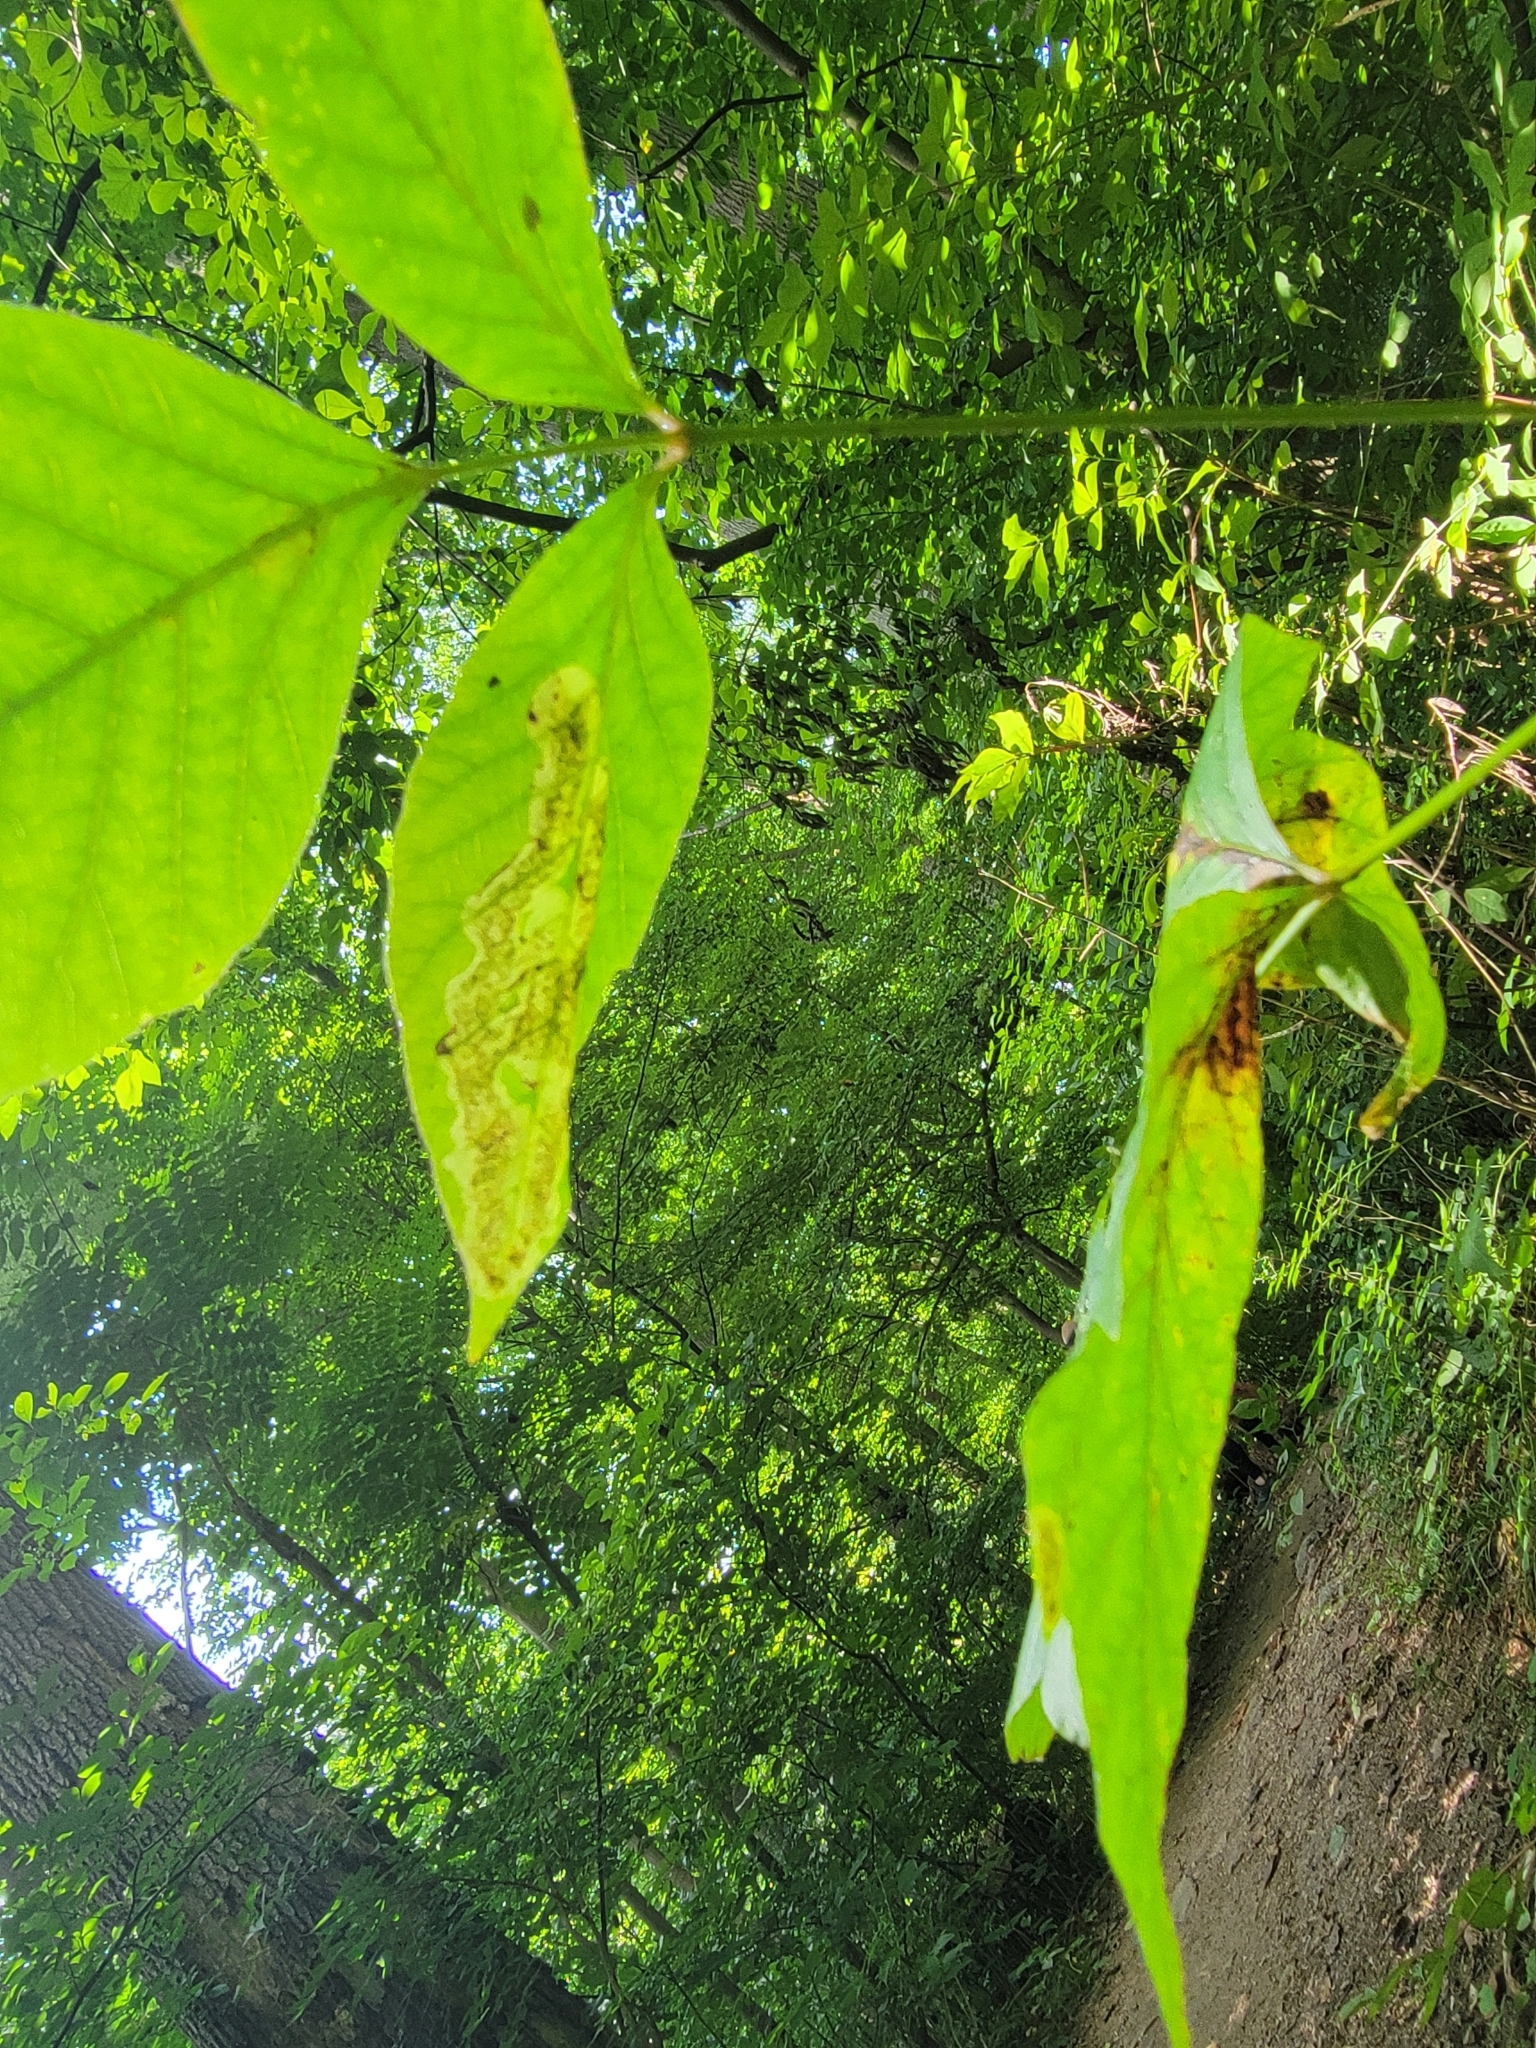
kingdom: Animalia
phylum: Arthropoda
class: Insecta
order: Lepidoptera
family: Gracillariidae
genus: Cameraria
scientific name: Cameraria guttifinitella
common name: Poison ivy leaf-miner moth
